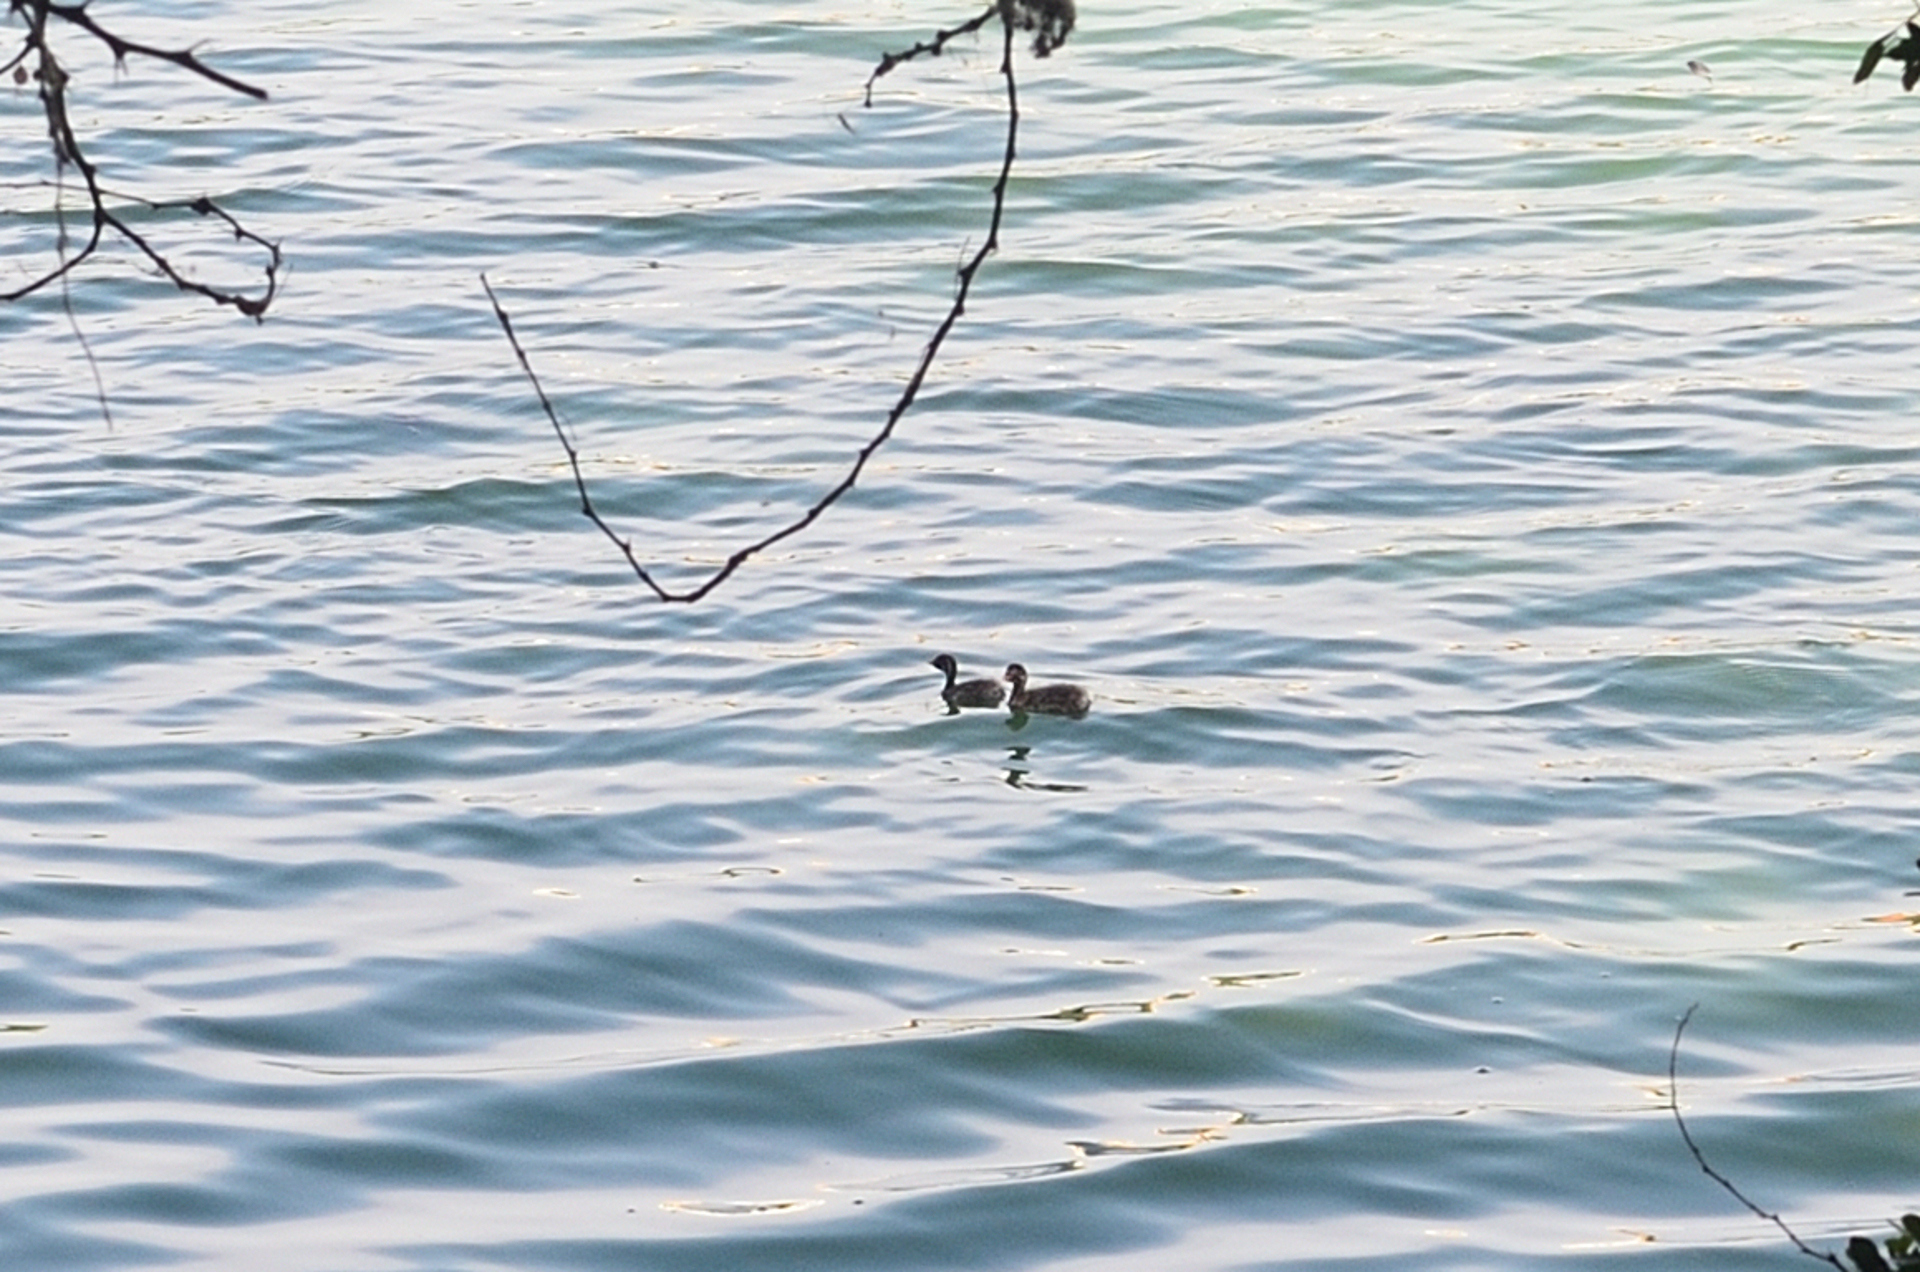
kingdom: Animalia
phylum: Chordata
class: Aves
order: Podicipediformes
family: Podicipedidae
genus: Tachybaptus
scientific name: Tachybaptus ruficollis
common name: Little grebe
